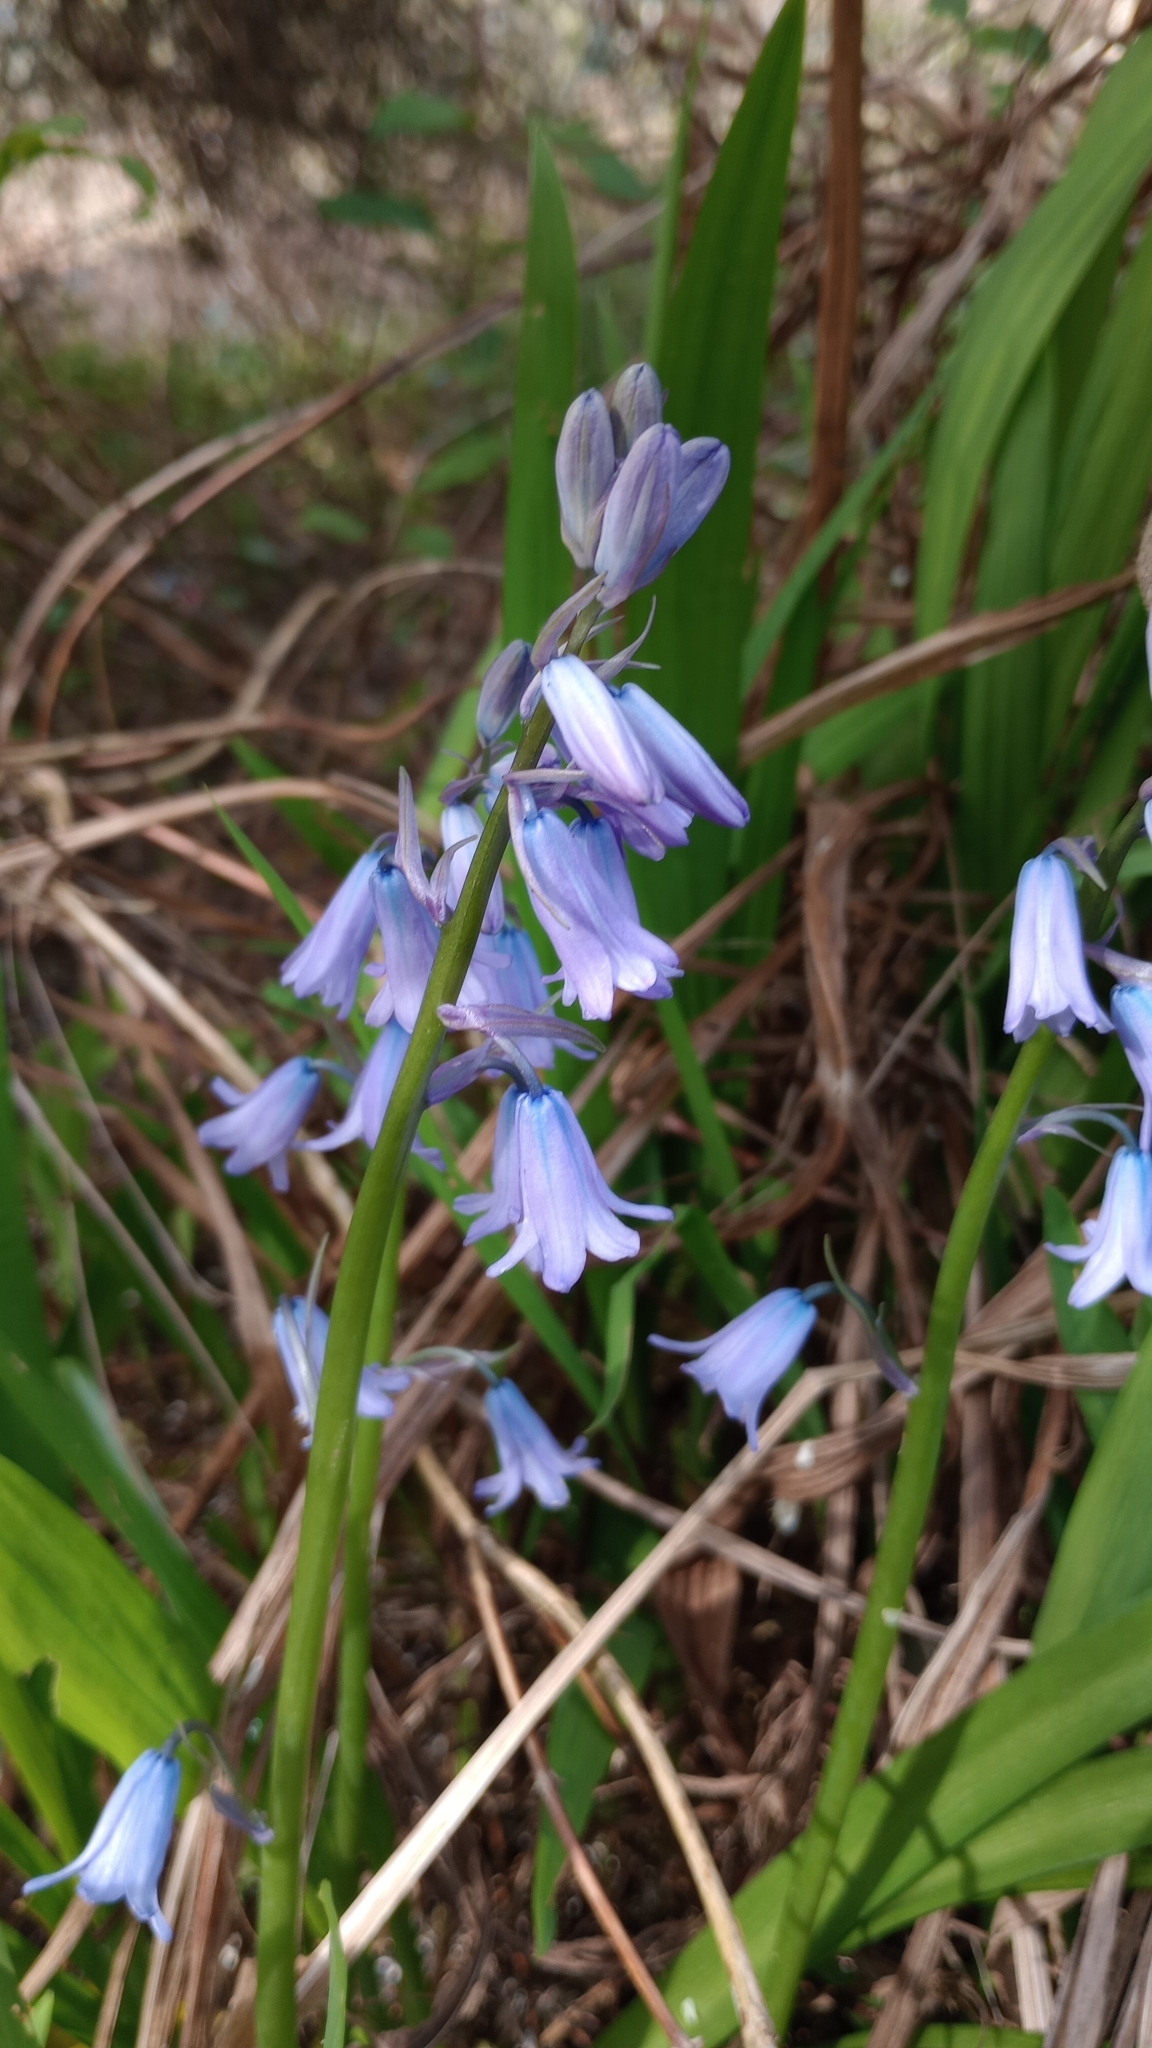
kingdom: Plantae
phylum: Tracheophyta
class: Liliopsida
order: Asparagales
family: Asparagaceae
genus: Hyacinthoides
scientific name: Hyacinthoides hispanica
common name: Spanish bluebell
